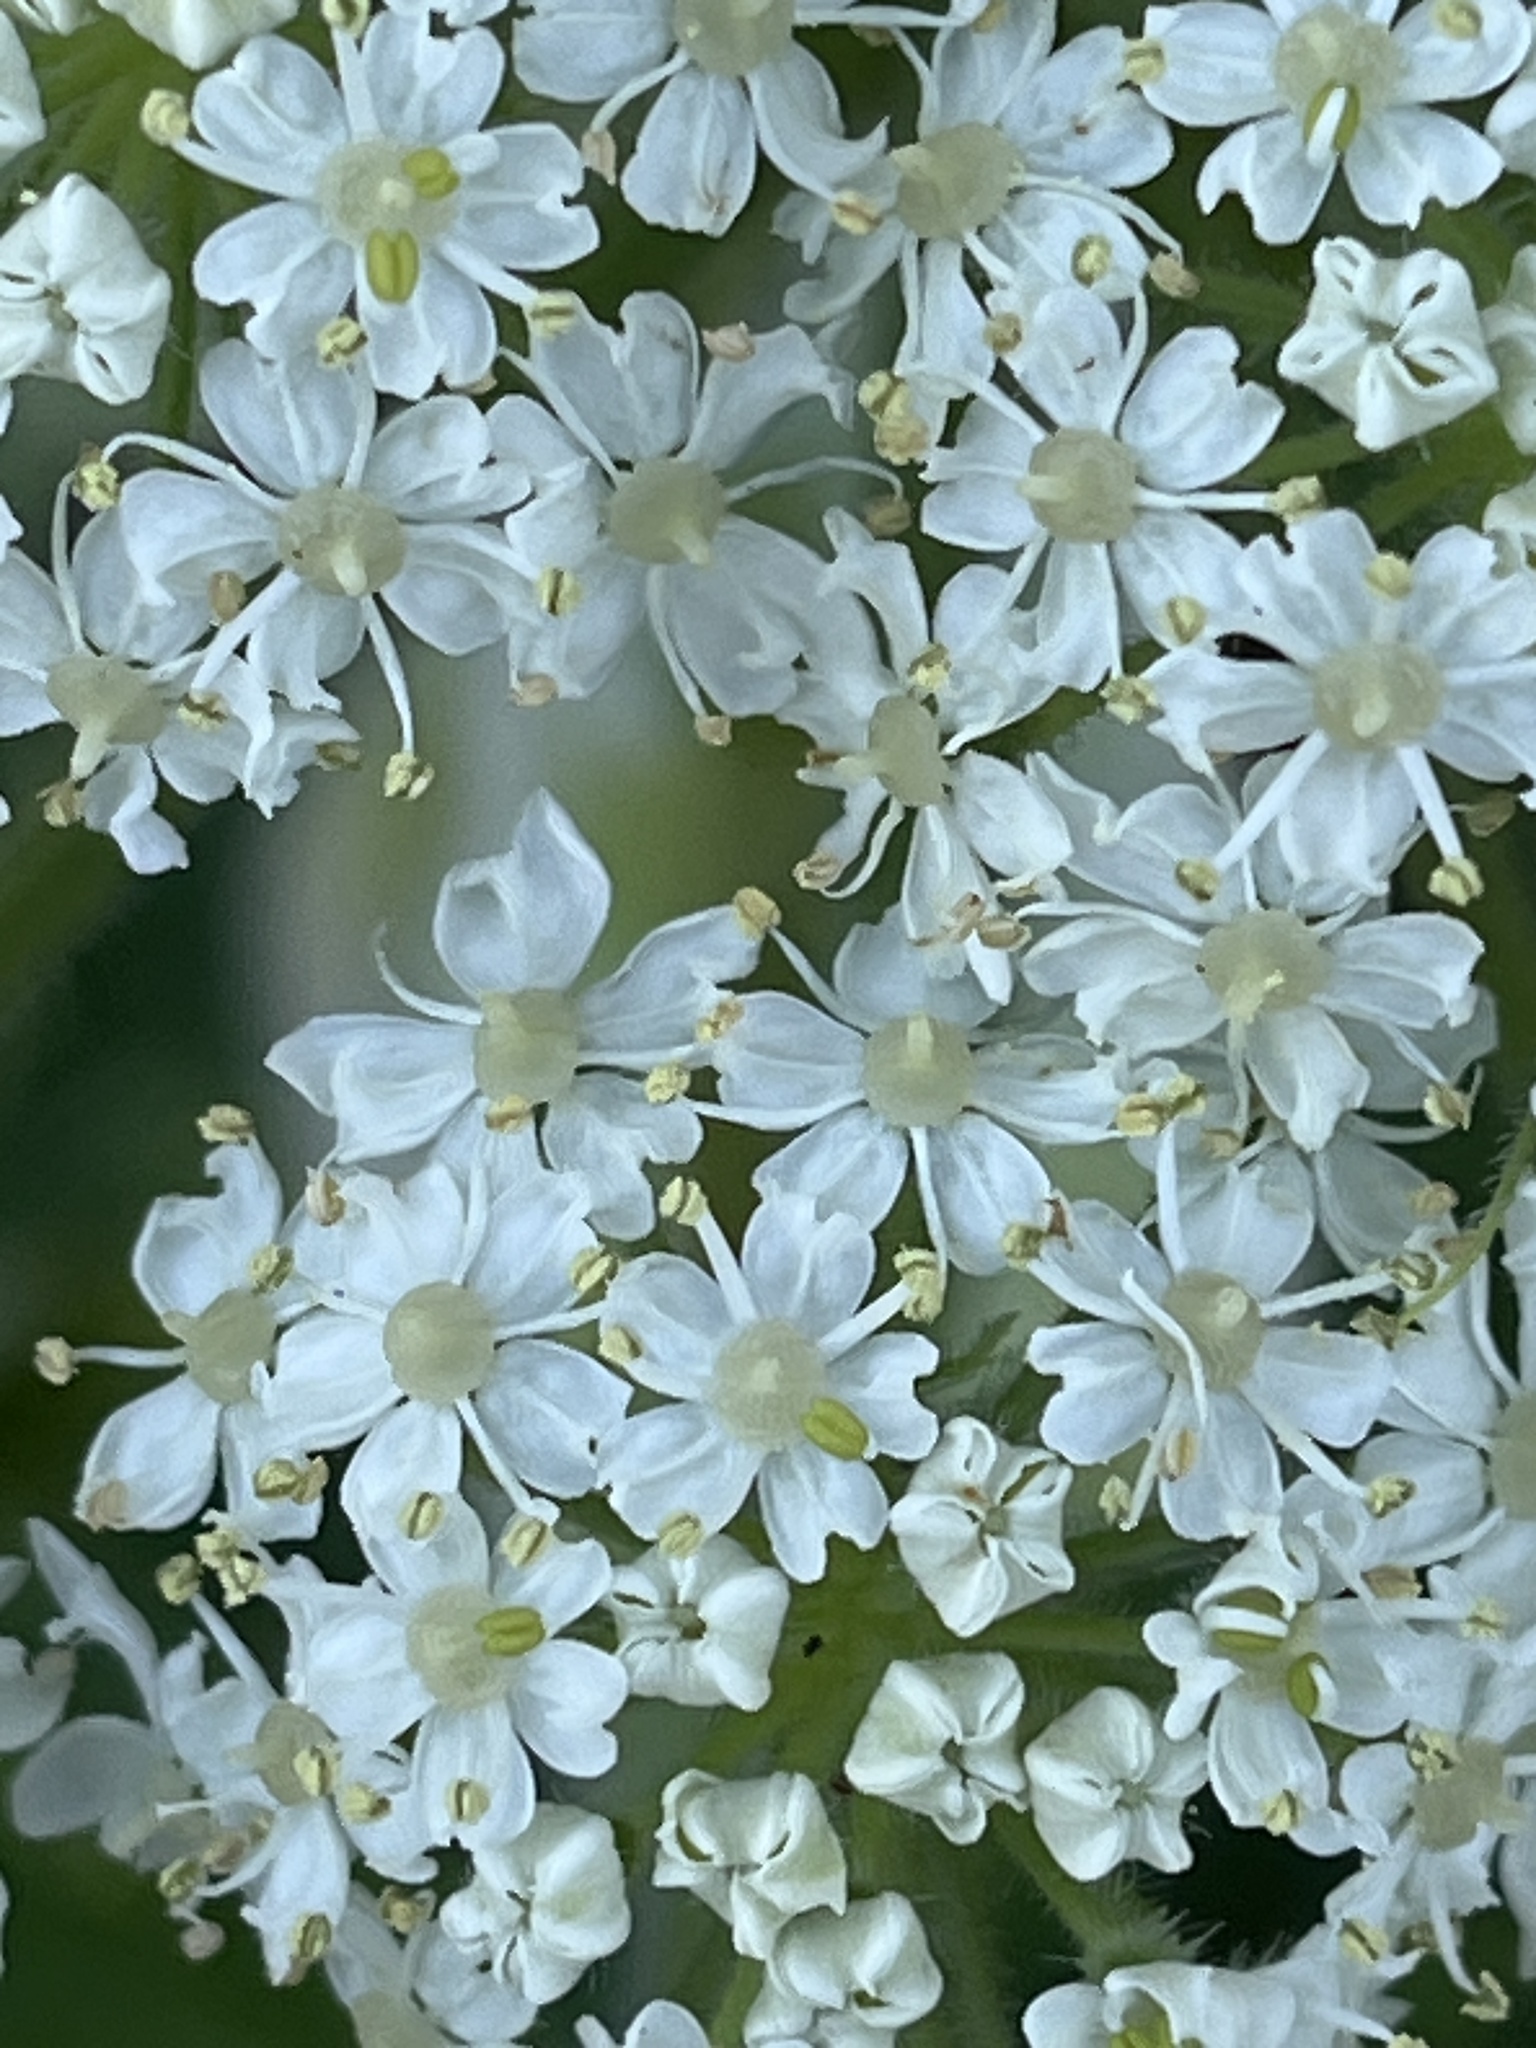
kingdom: Plantae
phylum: Tracheophyta
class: Magnoliopsida
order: Apiales
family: Apiaceae
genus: Heracleum
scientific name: Heracleum maximum
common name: American cow parsnip
